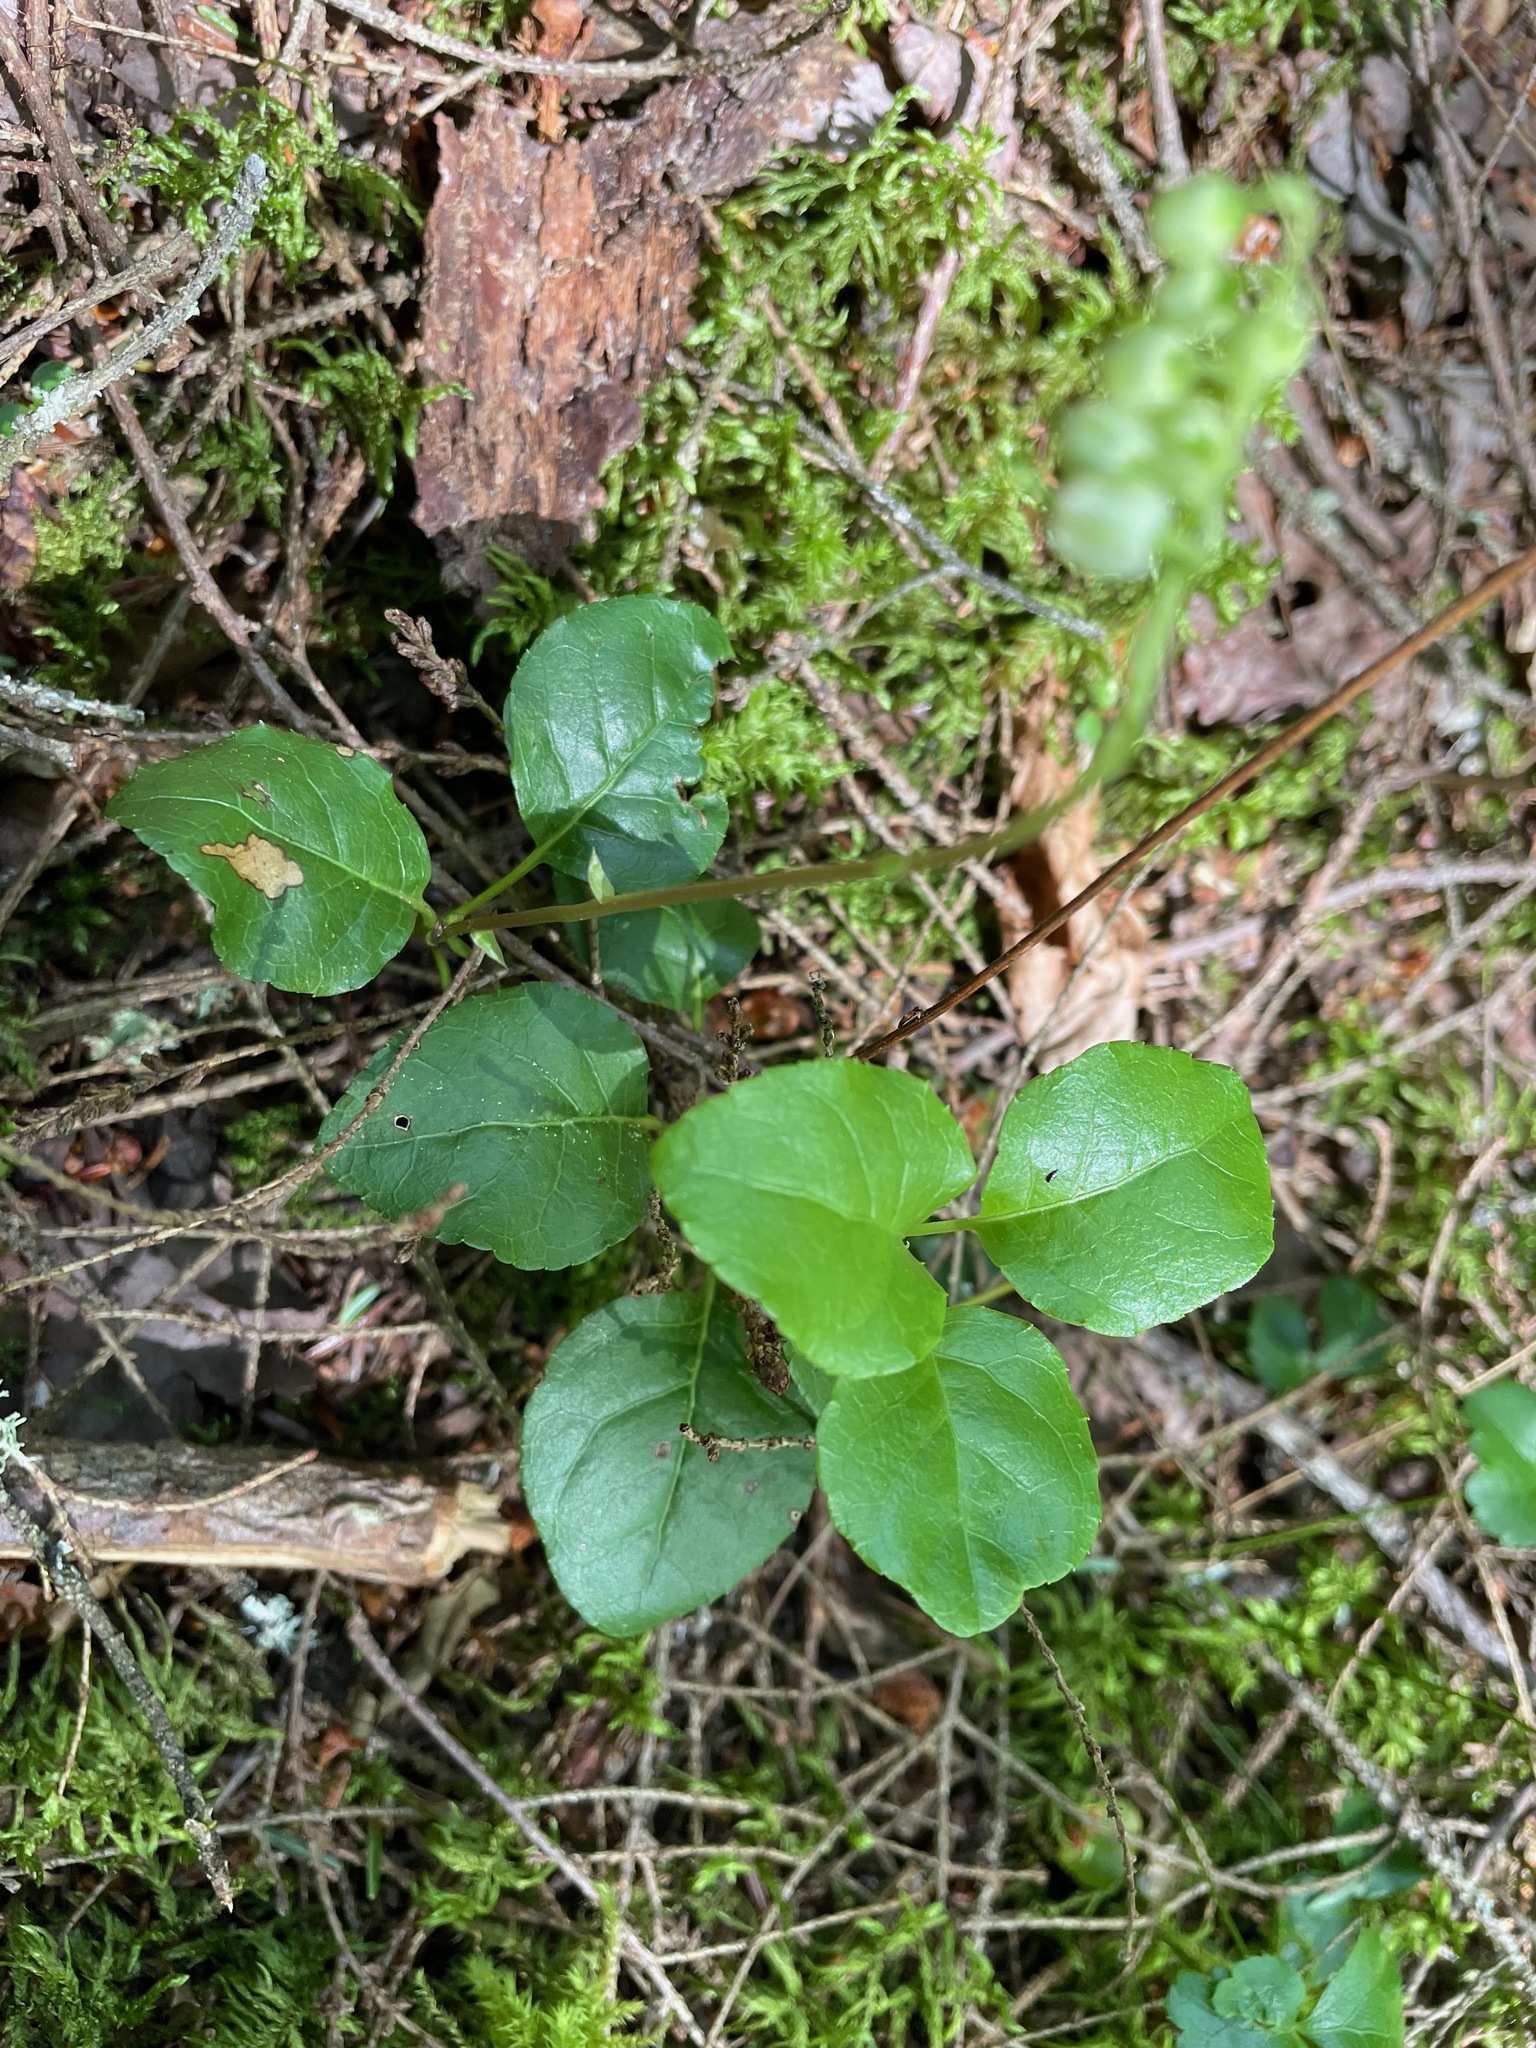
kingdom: Plantae
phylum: Tracheophyta
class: Magnoliopsida
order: Ericales
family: Ericaceae
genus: Orthilia
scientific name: Orthilia secunda
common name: One-sided orthilia
